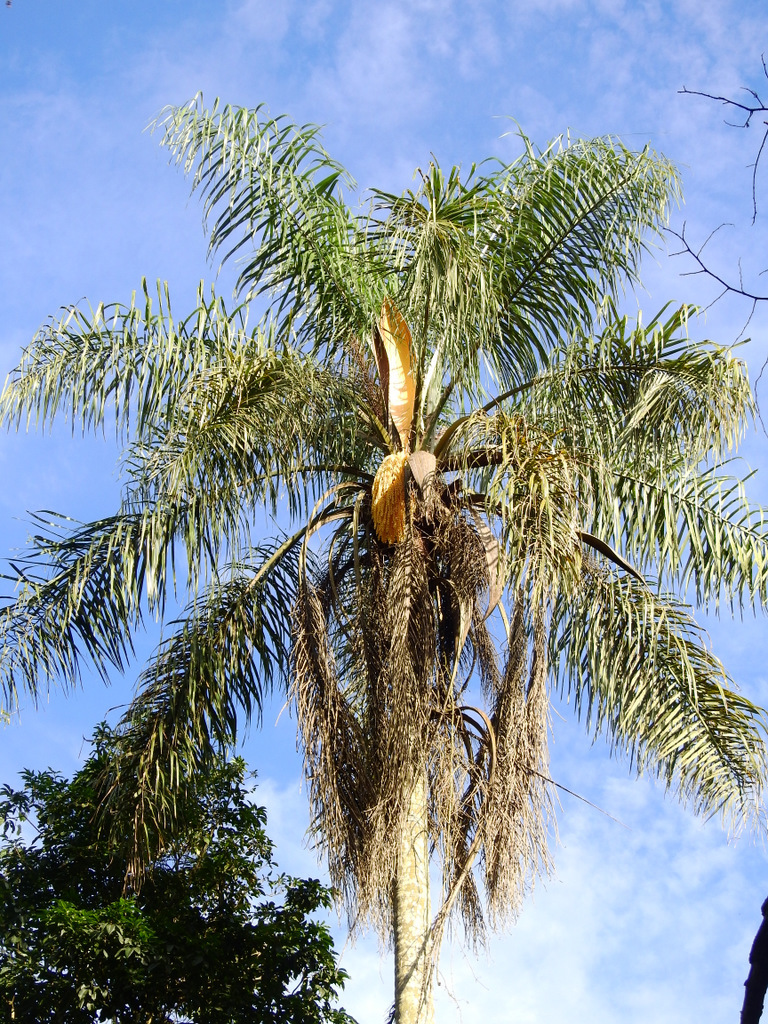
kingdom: Plantae
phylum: Tracheophyta
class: Liliopsida
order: Arecales
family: Arecaceae
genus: Syagrus
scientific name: Syagrus romanzoffiana
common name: Queen palm
